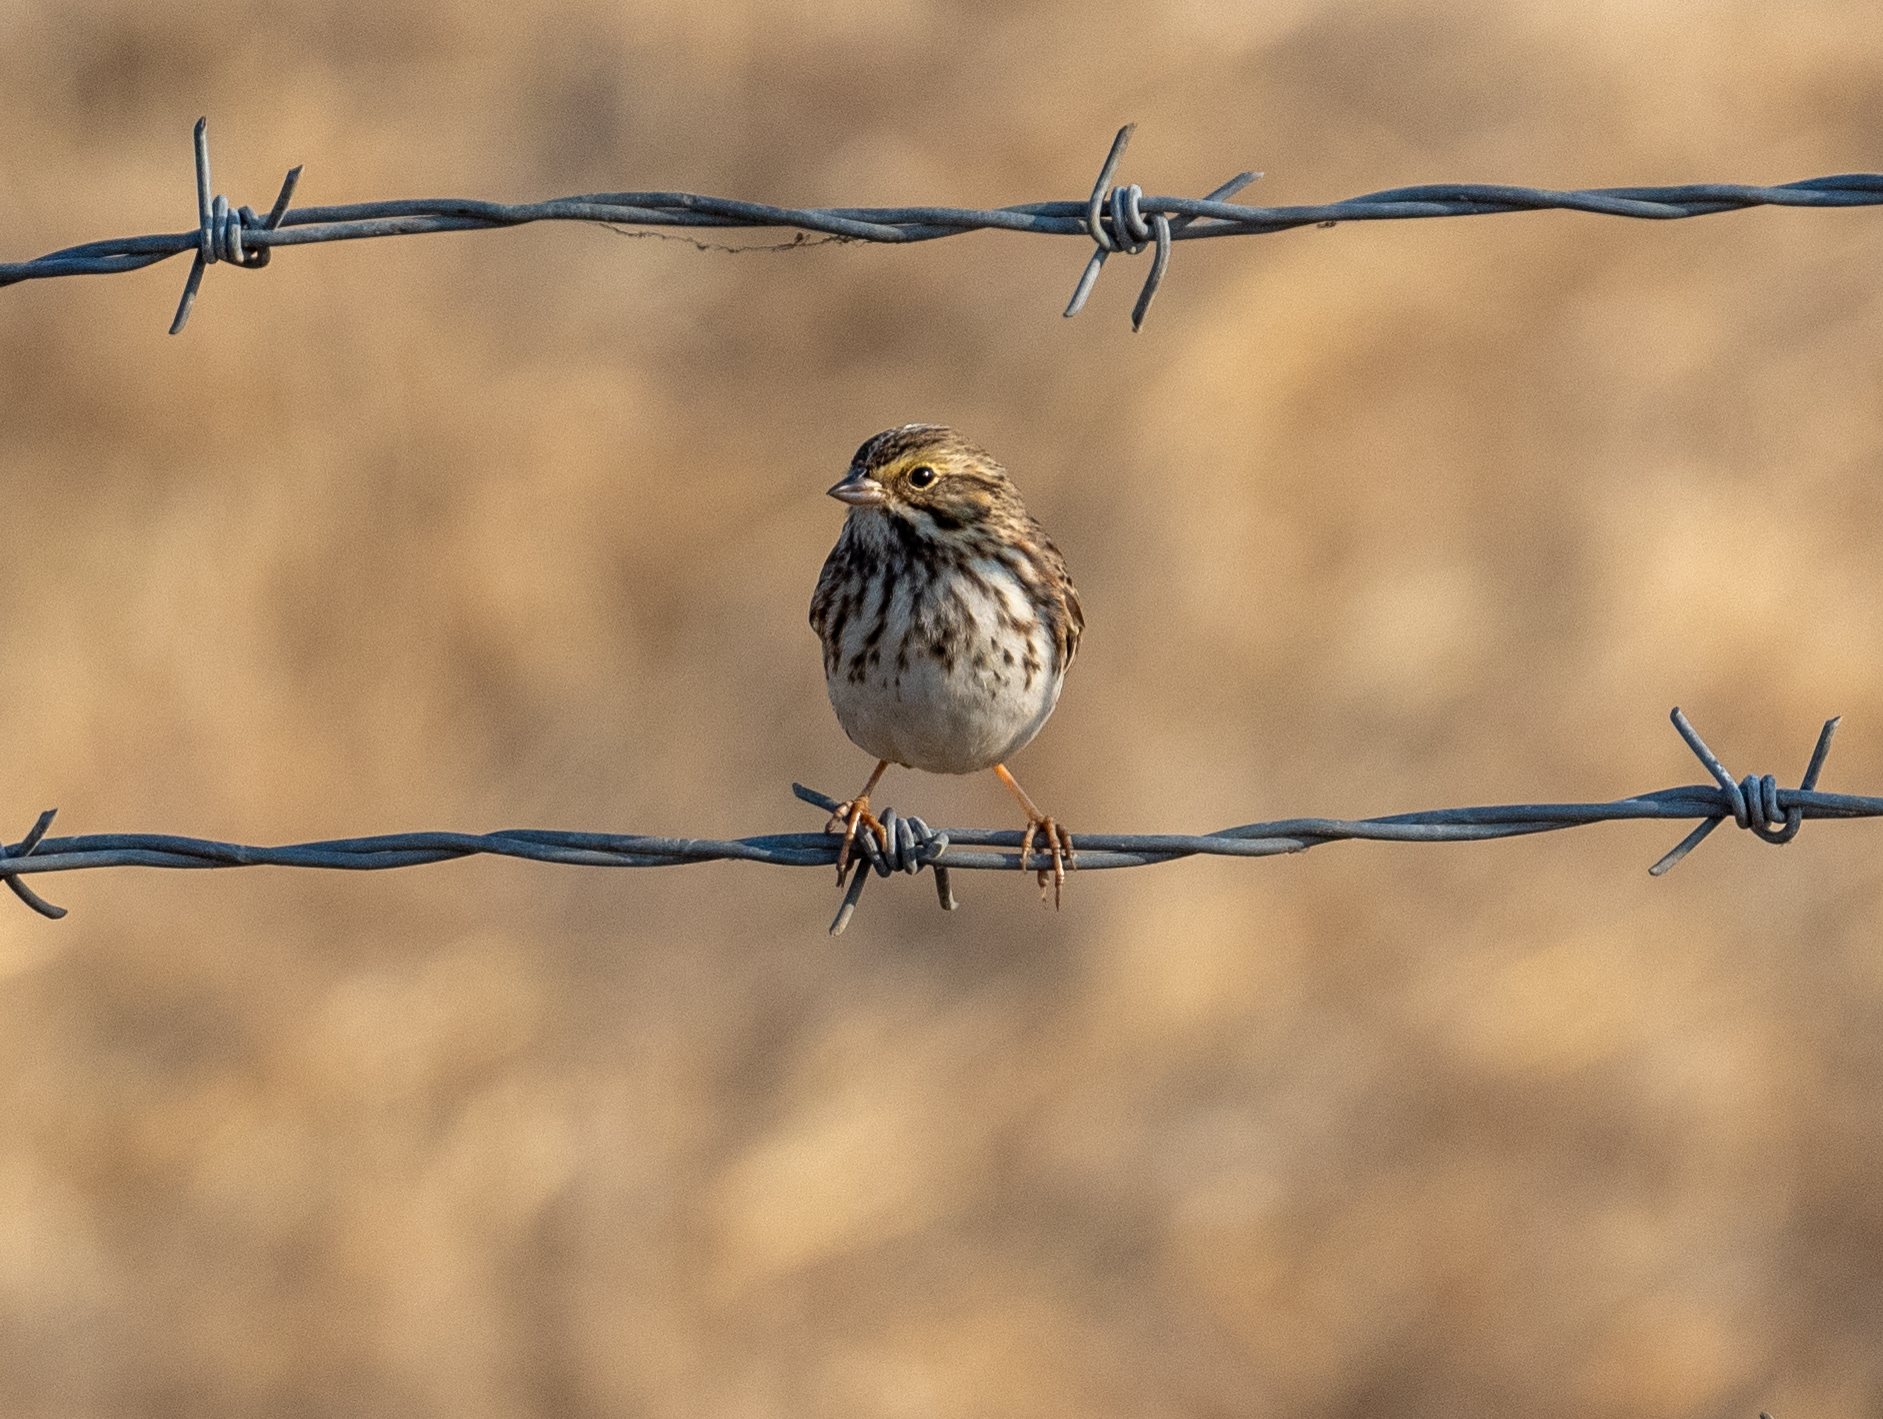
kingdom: Animalia
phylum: Chordata
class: Aves
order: Passeriformes
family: Passerellidae
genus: Passerculus
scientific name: Passerculus sandwichensis
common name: Savannah sparrow
